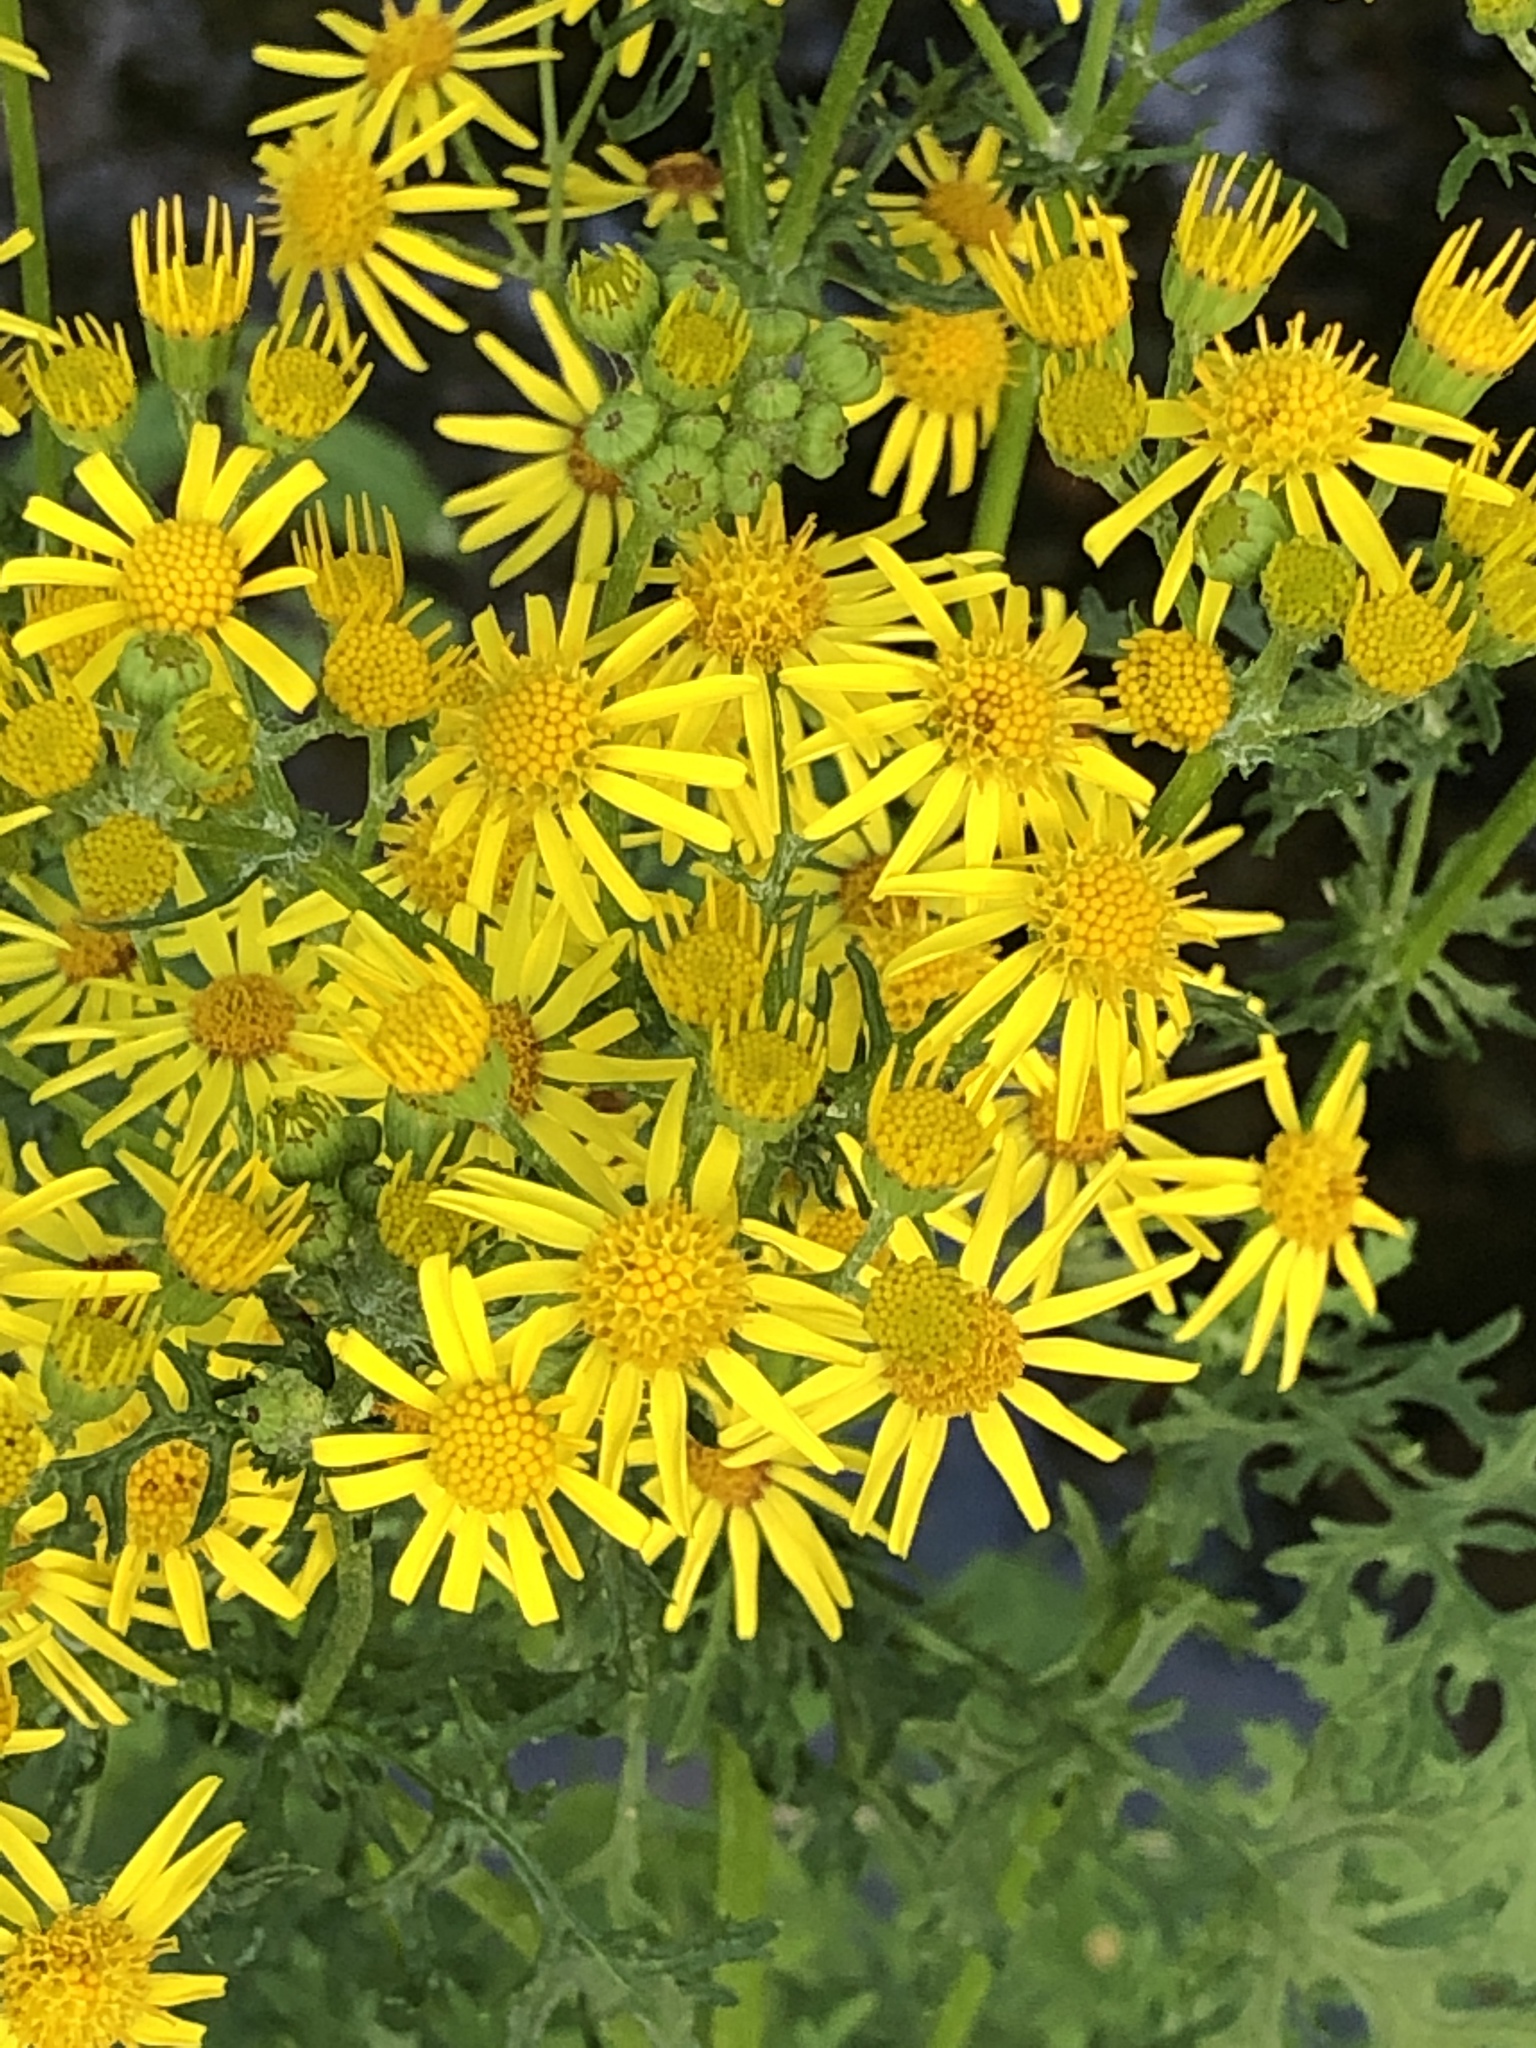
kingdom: Plantae
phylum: Tracheophyta
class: Magnoliopsida
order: Asterales
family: Asteraceae
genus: Jacobaea
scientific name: Jacobaea vulgaris
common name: Stinking willie
